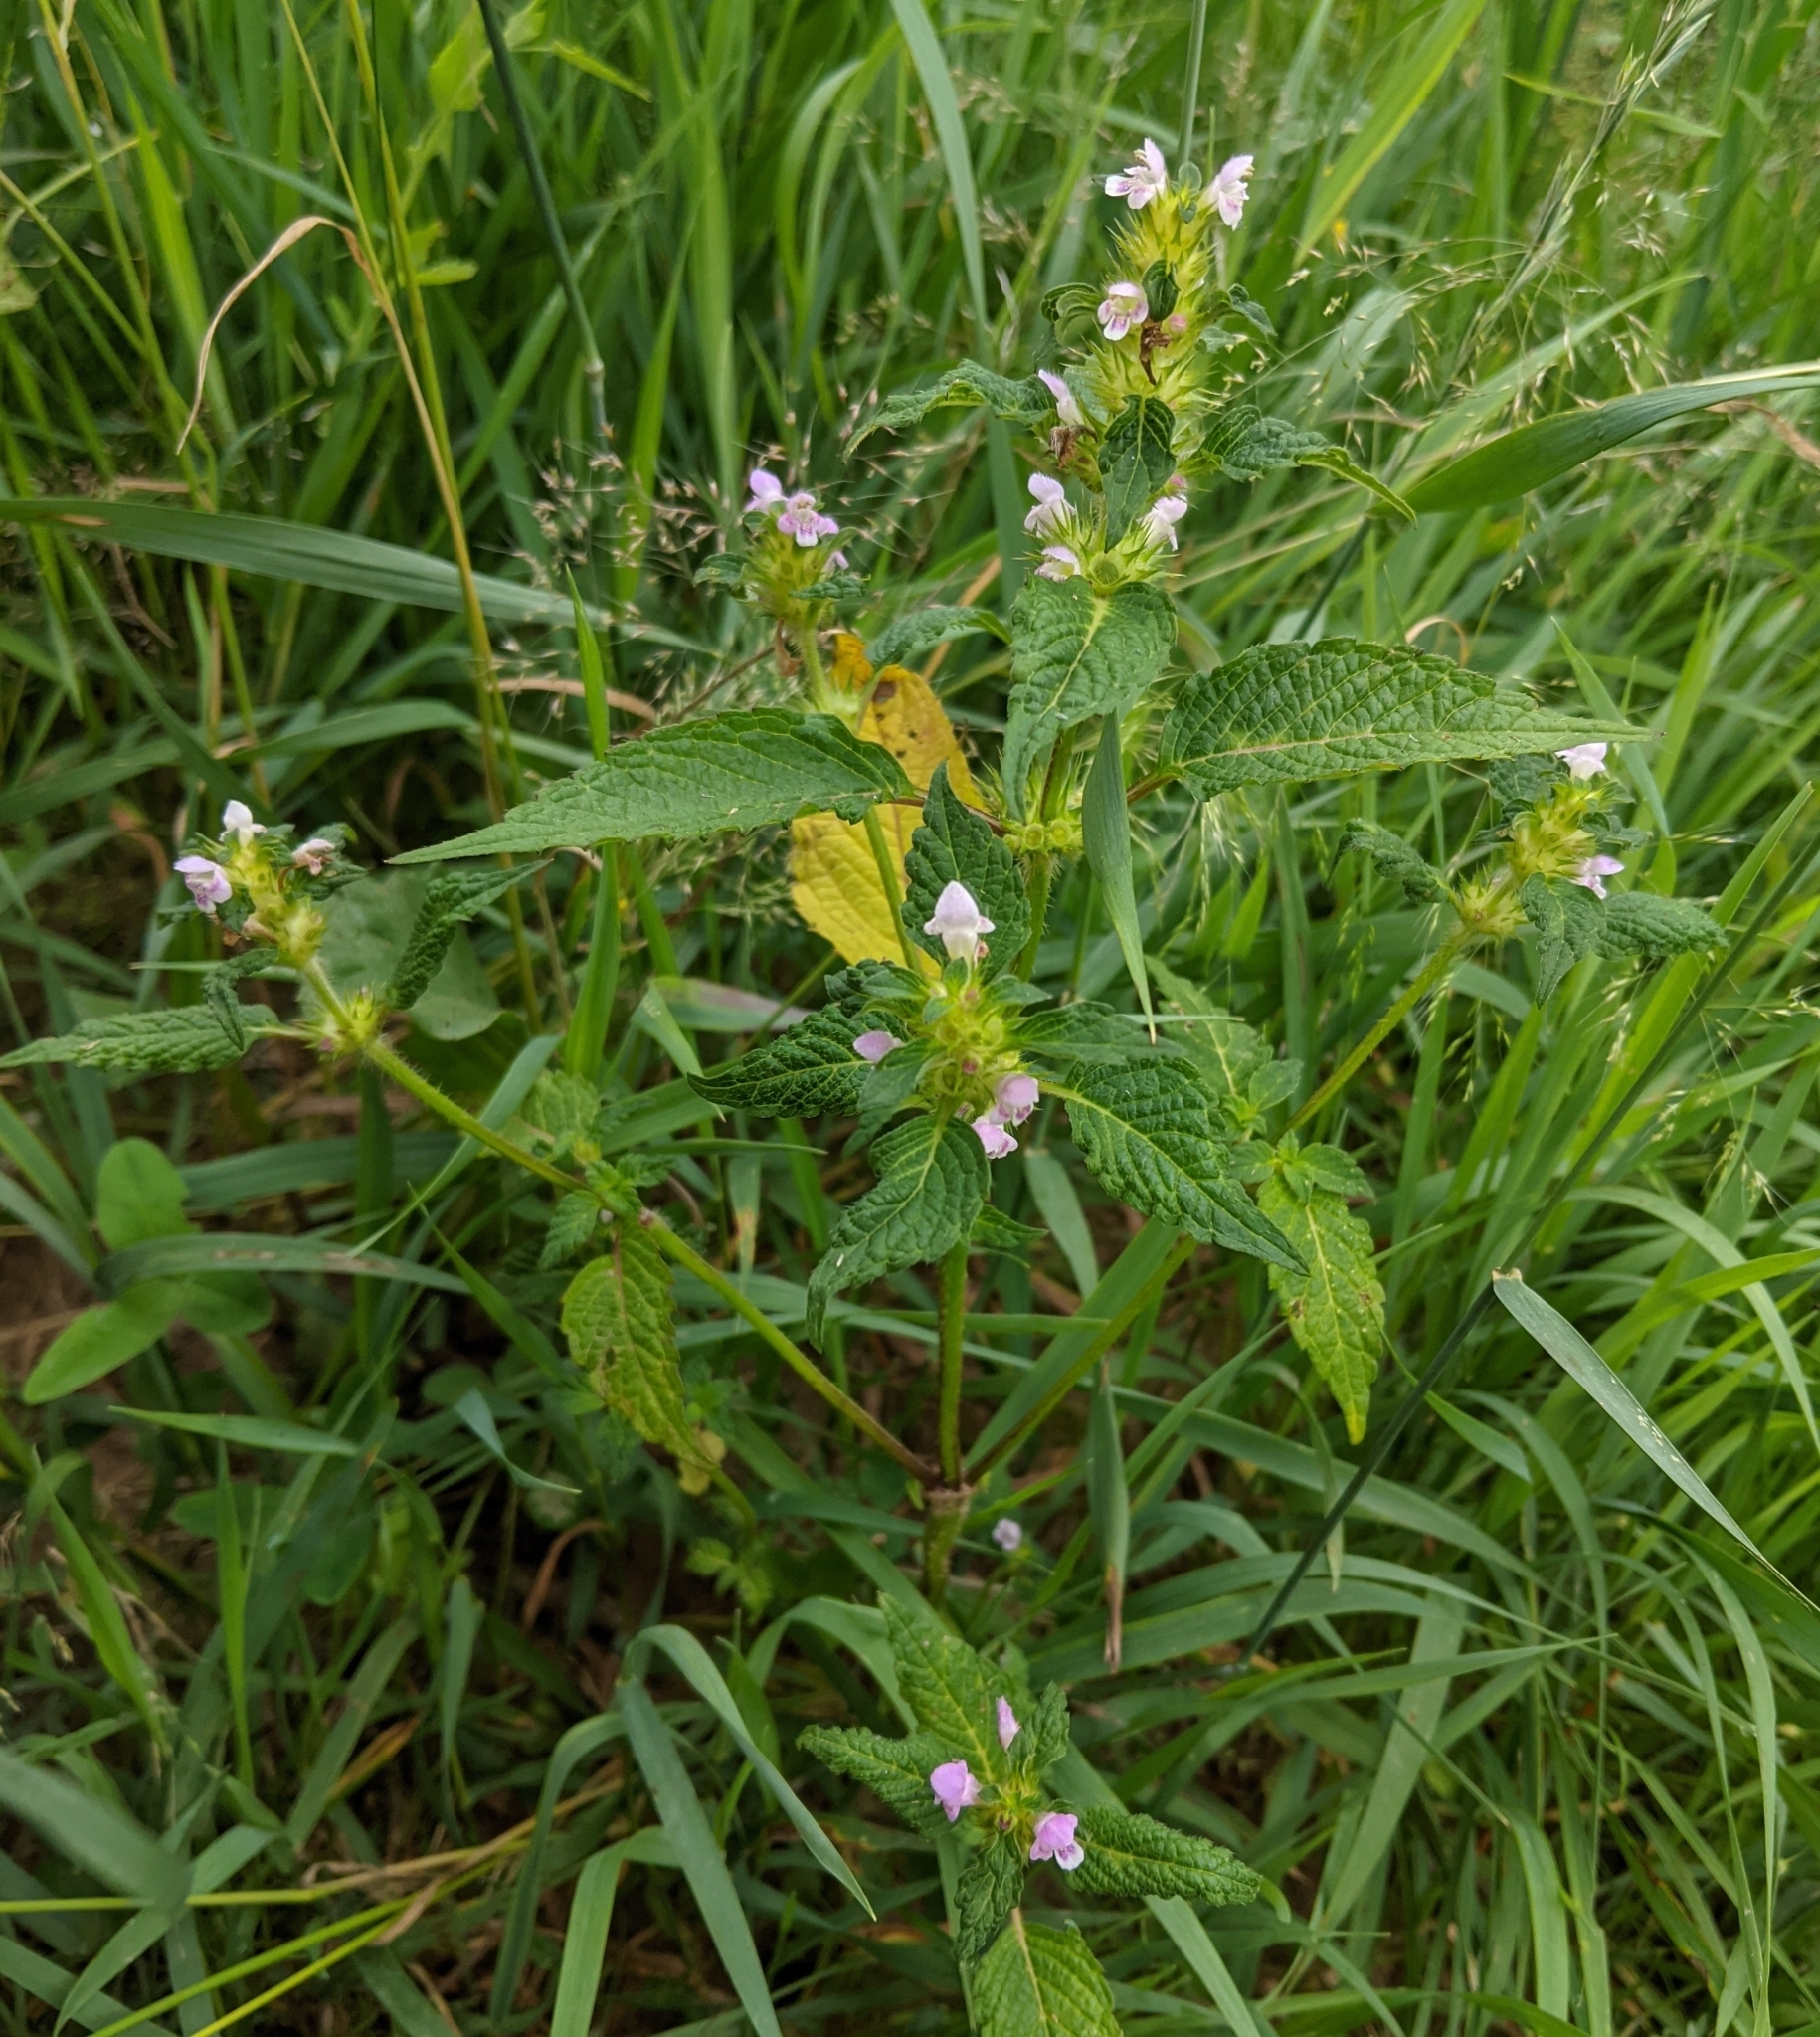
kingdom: Plantae
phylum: Tracheophyta
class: Magnoliopsida
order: Lamiales
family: Lamiaceae
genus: Galeopsis
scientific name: Galeopsis tetrahit
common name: Common hemp-nettle
